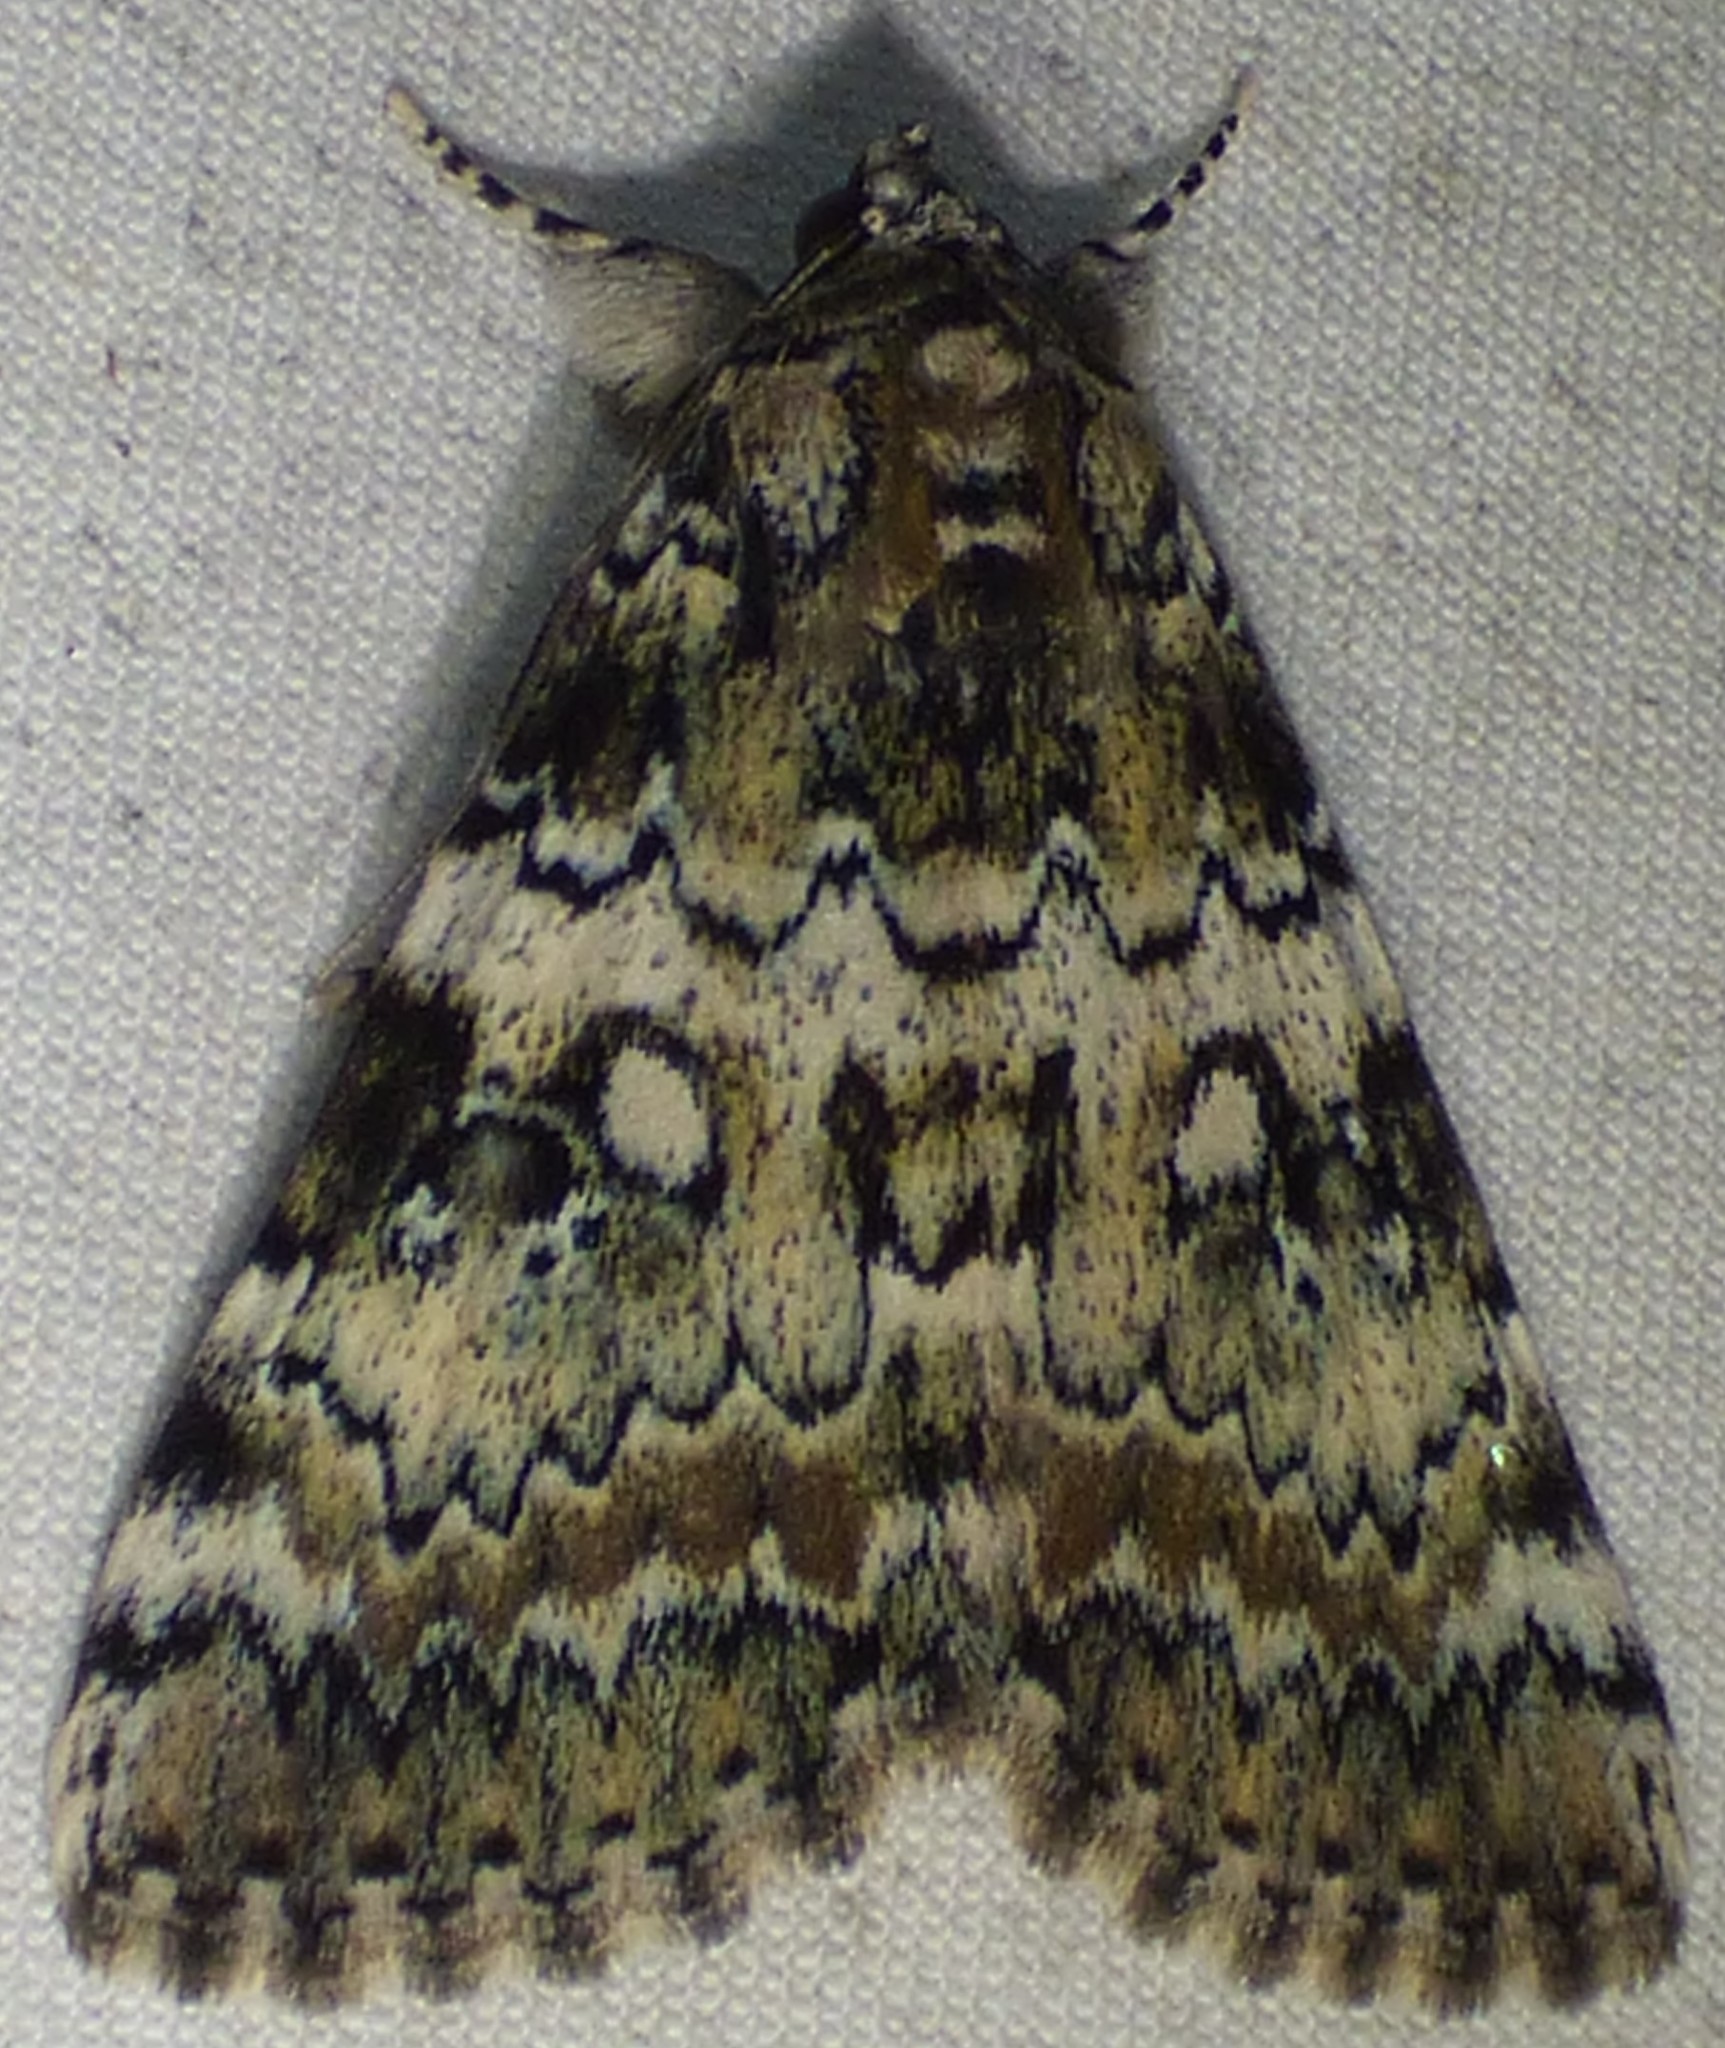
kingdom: Animalia
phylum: Arthropoda
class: Insecta
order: Lepidoptera
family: Erebidae
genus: Catocala
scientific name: Catocala connubialis
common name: Connubial underwing
